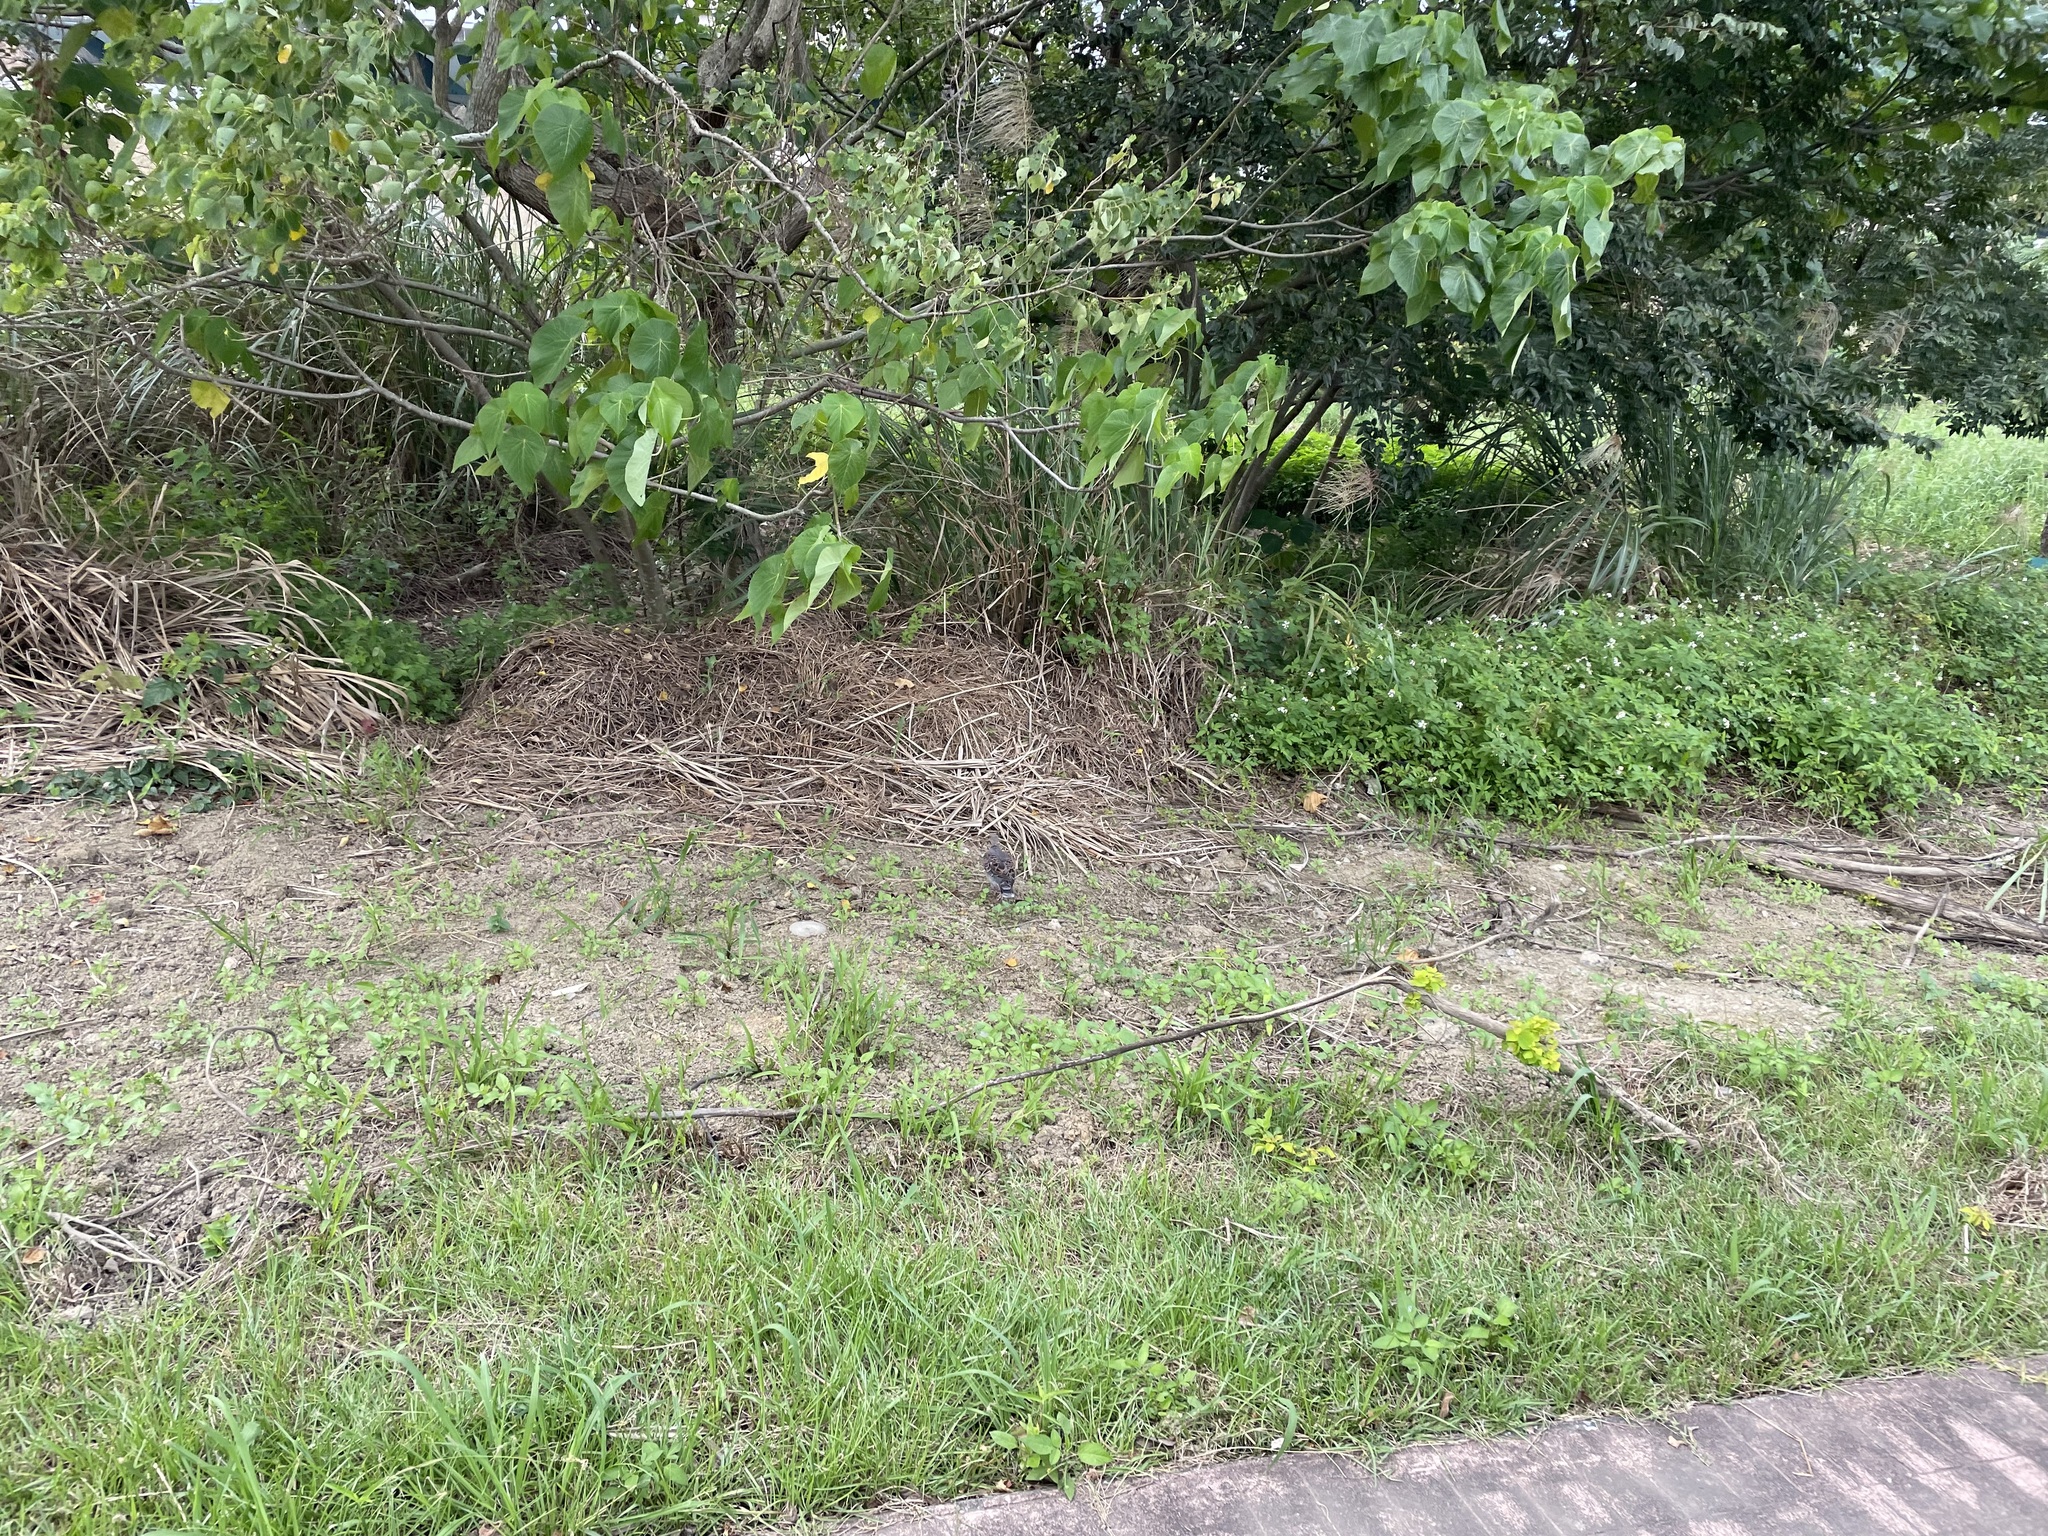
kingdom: Animalia
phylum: Chordata
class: Aves
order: Columbiformes
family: Columbidae
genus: Streptopelia
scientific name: Streptopelia orientalis
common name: Oriental turtle dove
